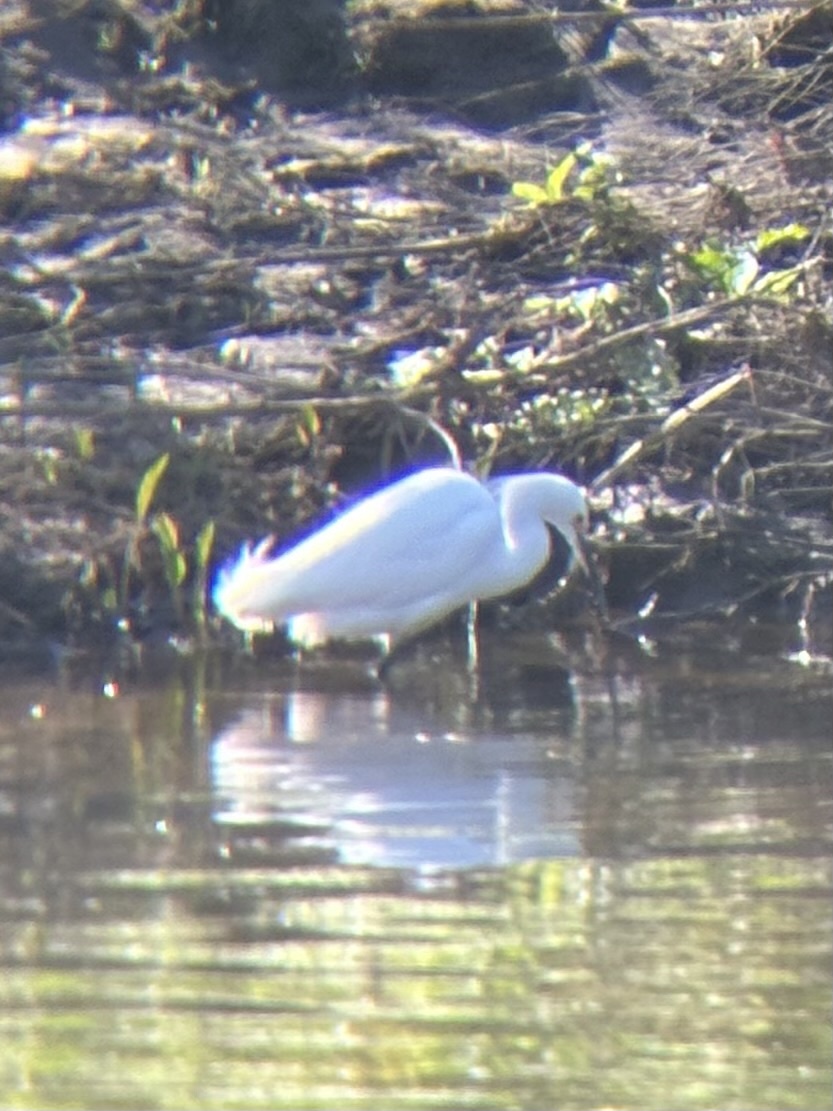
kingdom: Animalia
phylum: Chordata
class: Aves
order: Pelecaniformes
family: Ardeidae
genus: Egretta
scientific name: Egretta thula
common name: Snowy egret
